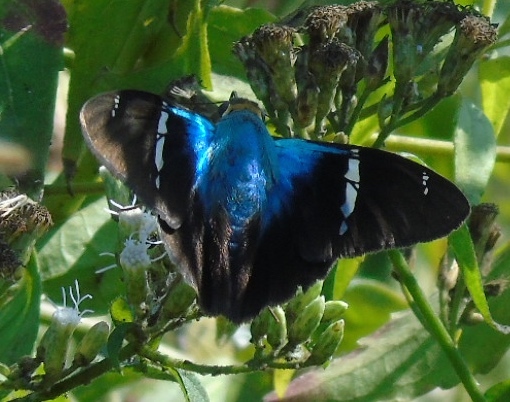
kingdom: Animalia
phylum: Arthropoda
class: Insecta
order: Lepidoptera
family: Hesperiidae
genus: Astraptes
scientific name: Astraptes fulgerator
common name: Two-barred flasher
